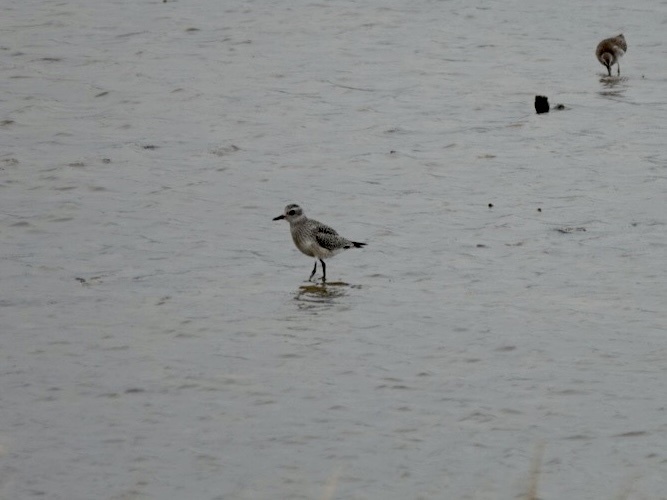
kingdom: Animalia
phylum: Chordata
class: Aves
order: Charadriiformes
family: Charadriidae
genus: Pluvialis
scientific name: Pluvialis squatarola
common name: Grey plover
